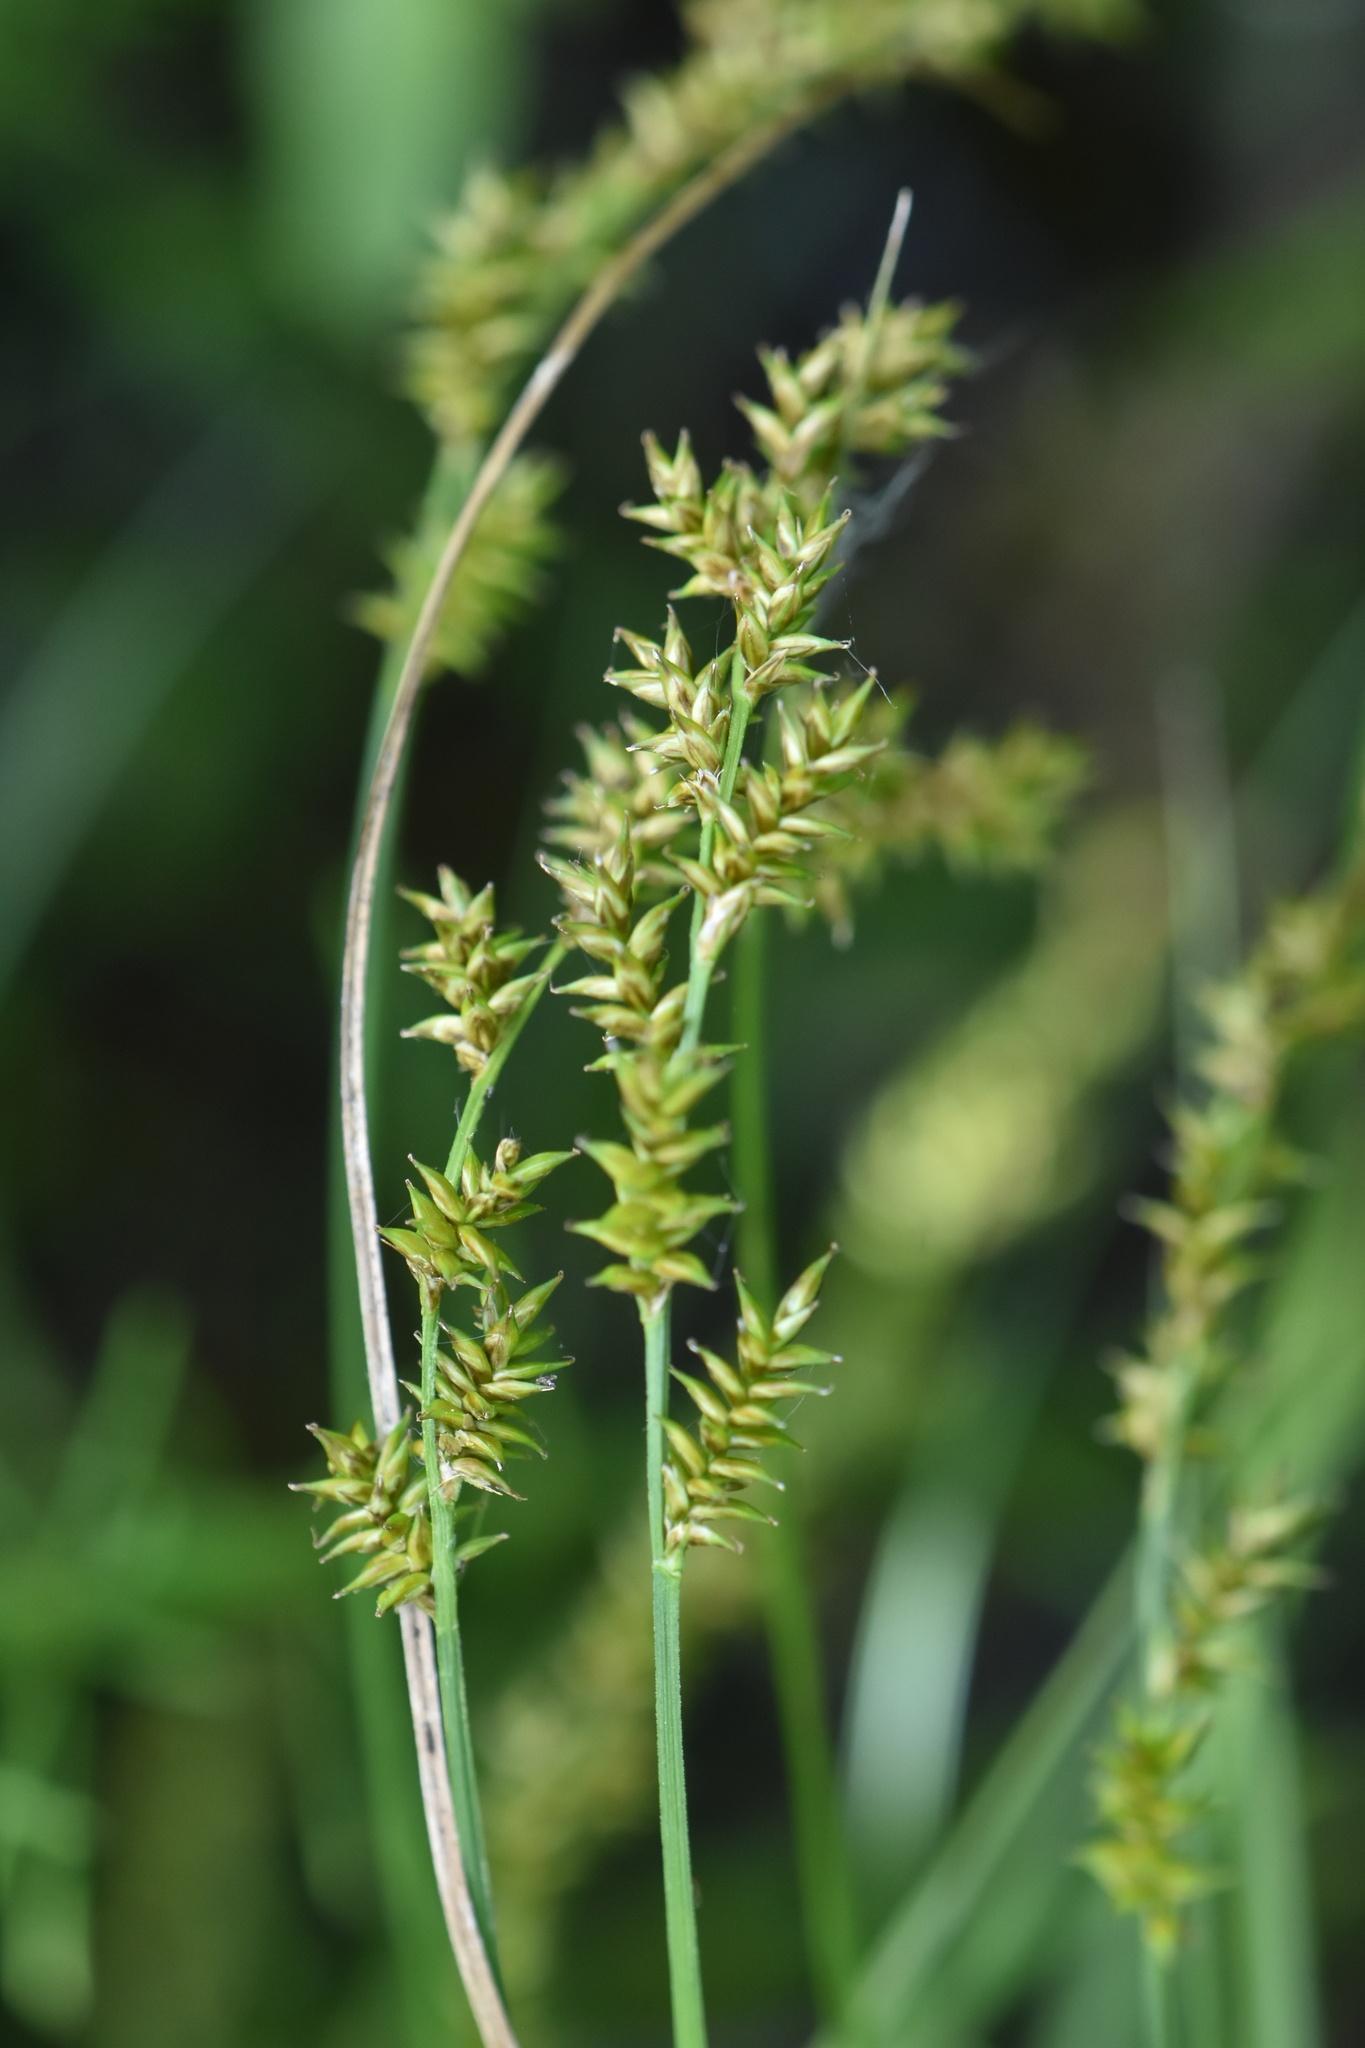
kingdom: Plantae
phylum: Tracheophyta
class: Liliopsida
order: Poales
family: Cyperaceae
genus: Carex
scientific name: Carex elongata
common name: Elongated sedge
